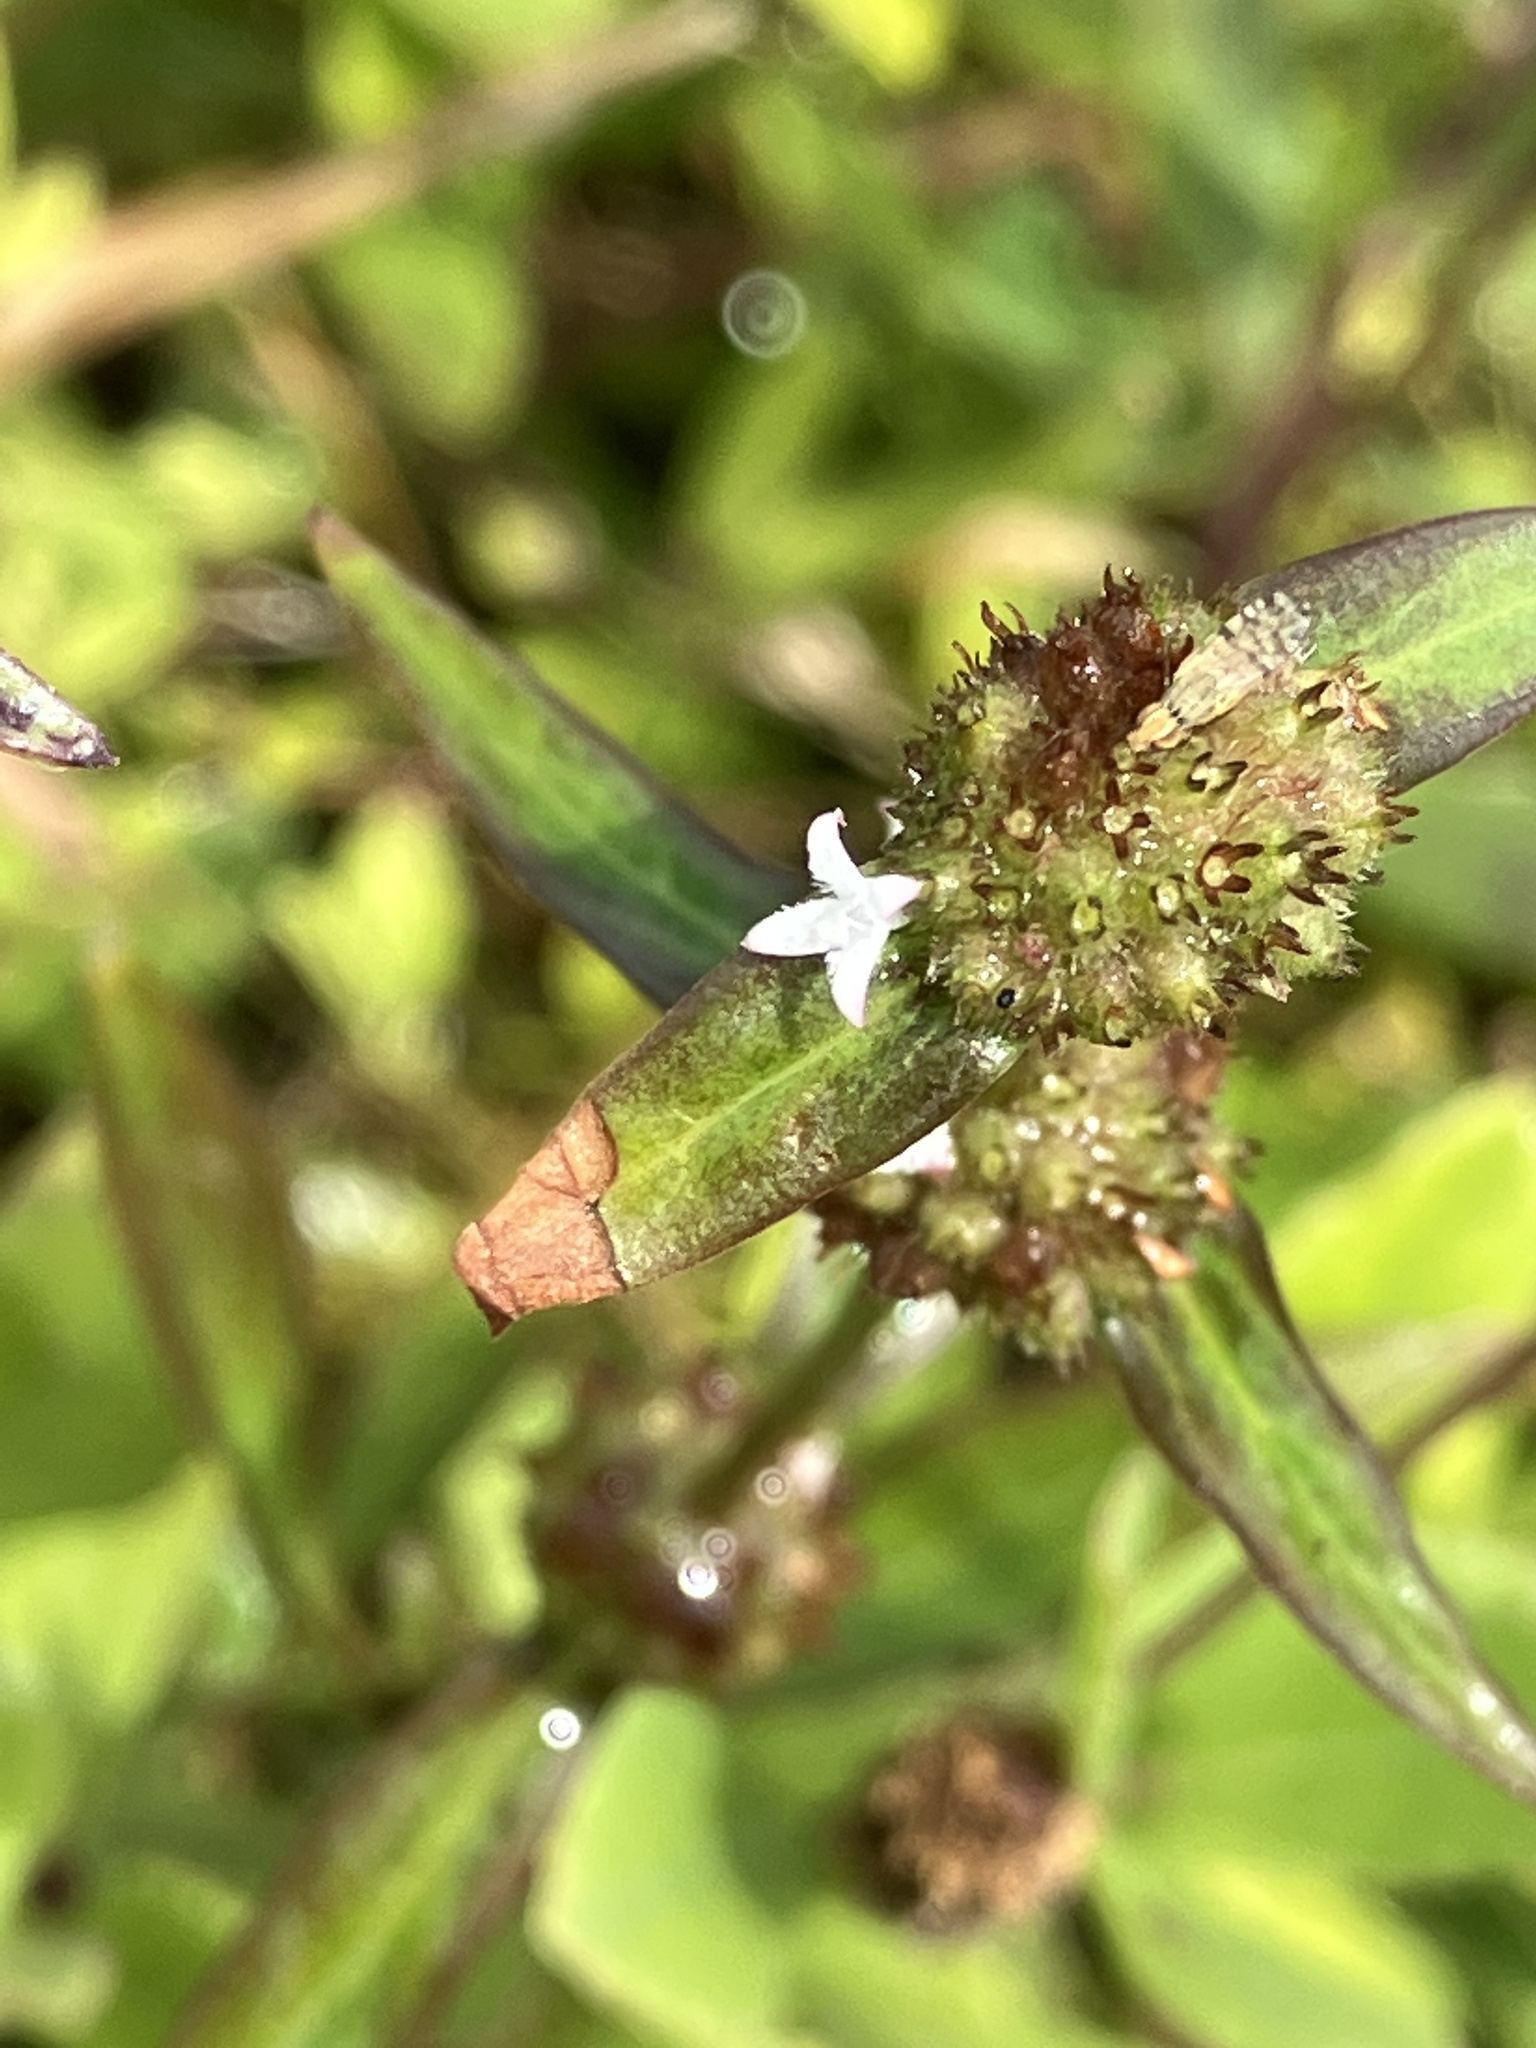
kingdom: Plantae
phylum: Tracheophyta
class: Magnoliopsida
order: Gentianales
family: Rubiaceae
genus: Spermacoce
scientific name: Spermacoce remota
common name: Woodland false buttonweed
